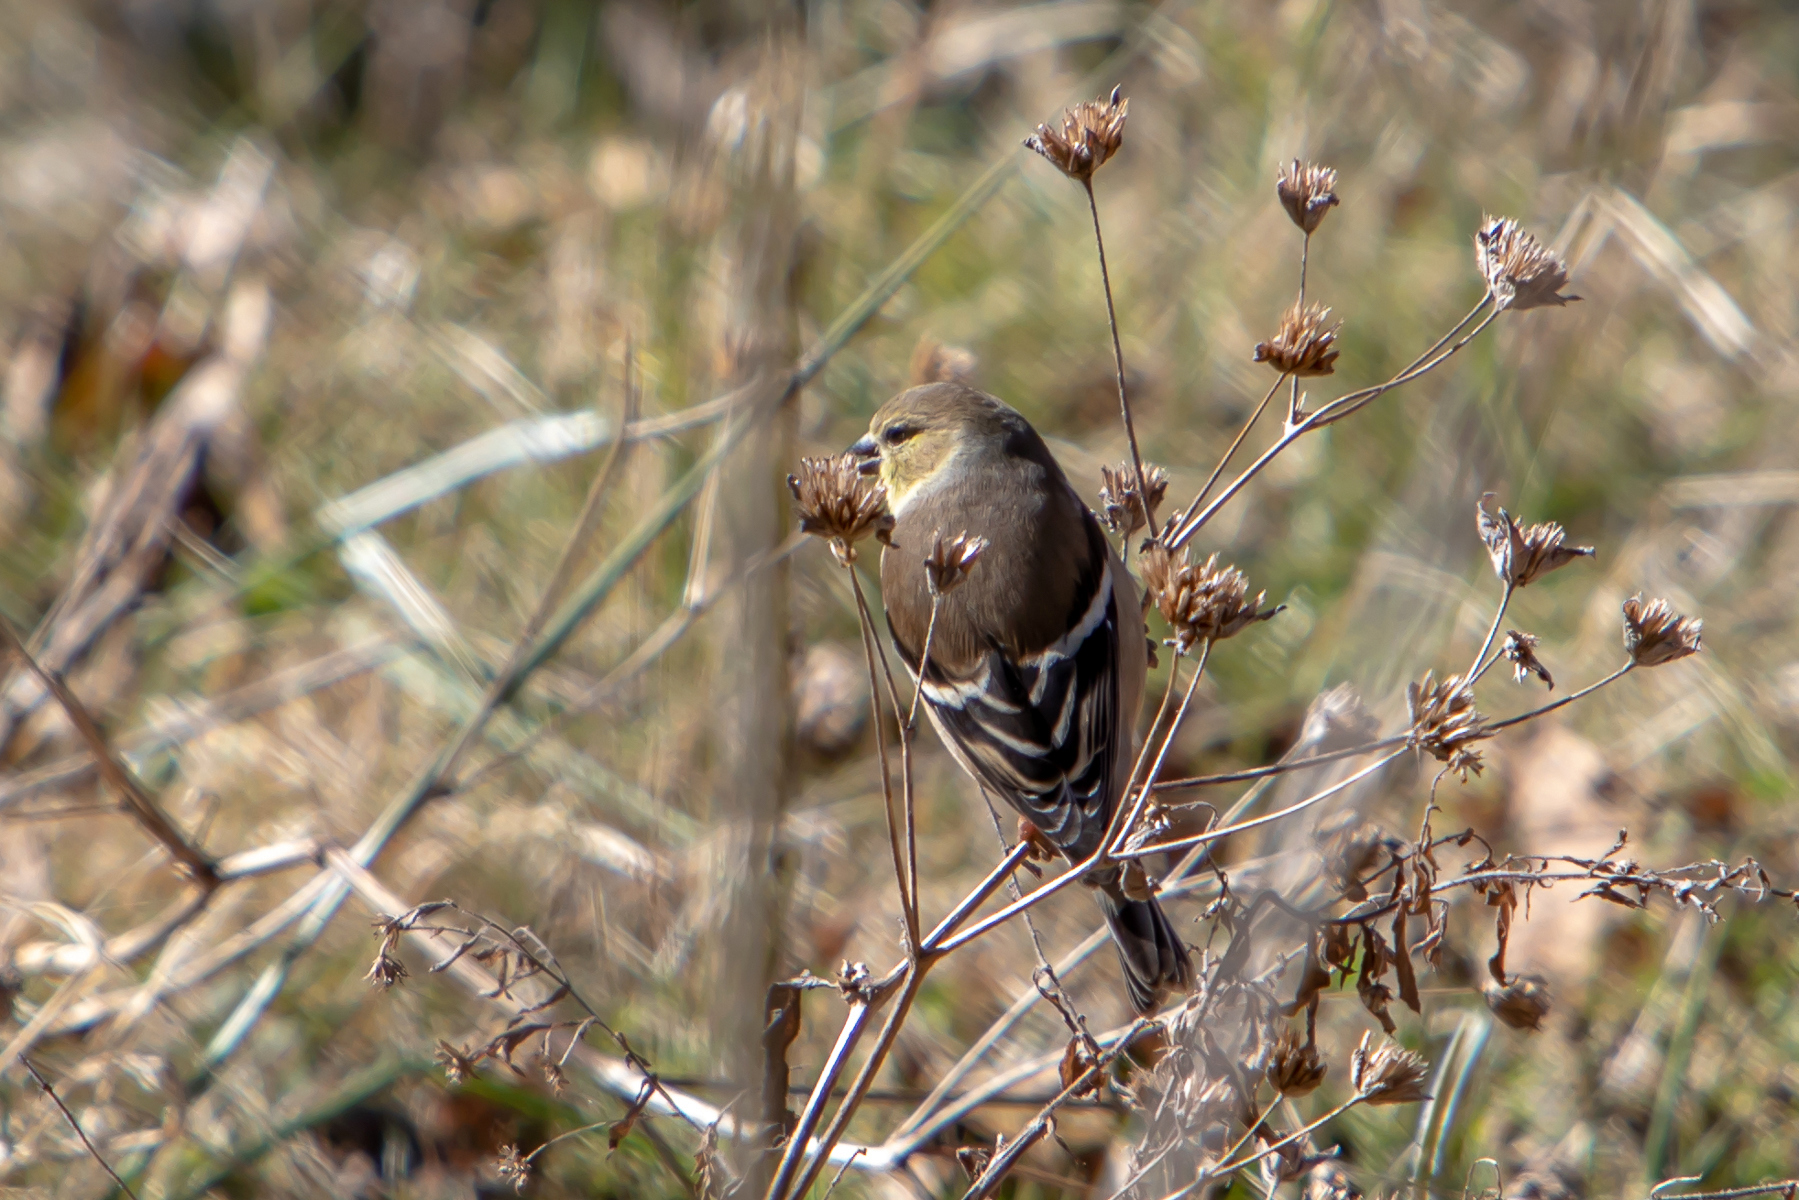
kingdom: Animalia
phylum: Chordata
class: Aves
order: Passeriformes
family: Fringillidae
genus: Spinus
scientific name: Spinus tristis
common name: American goldfinch
